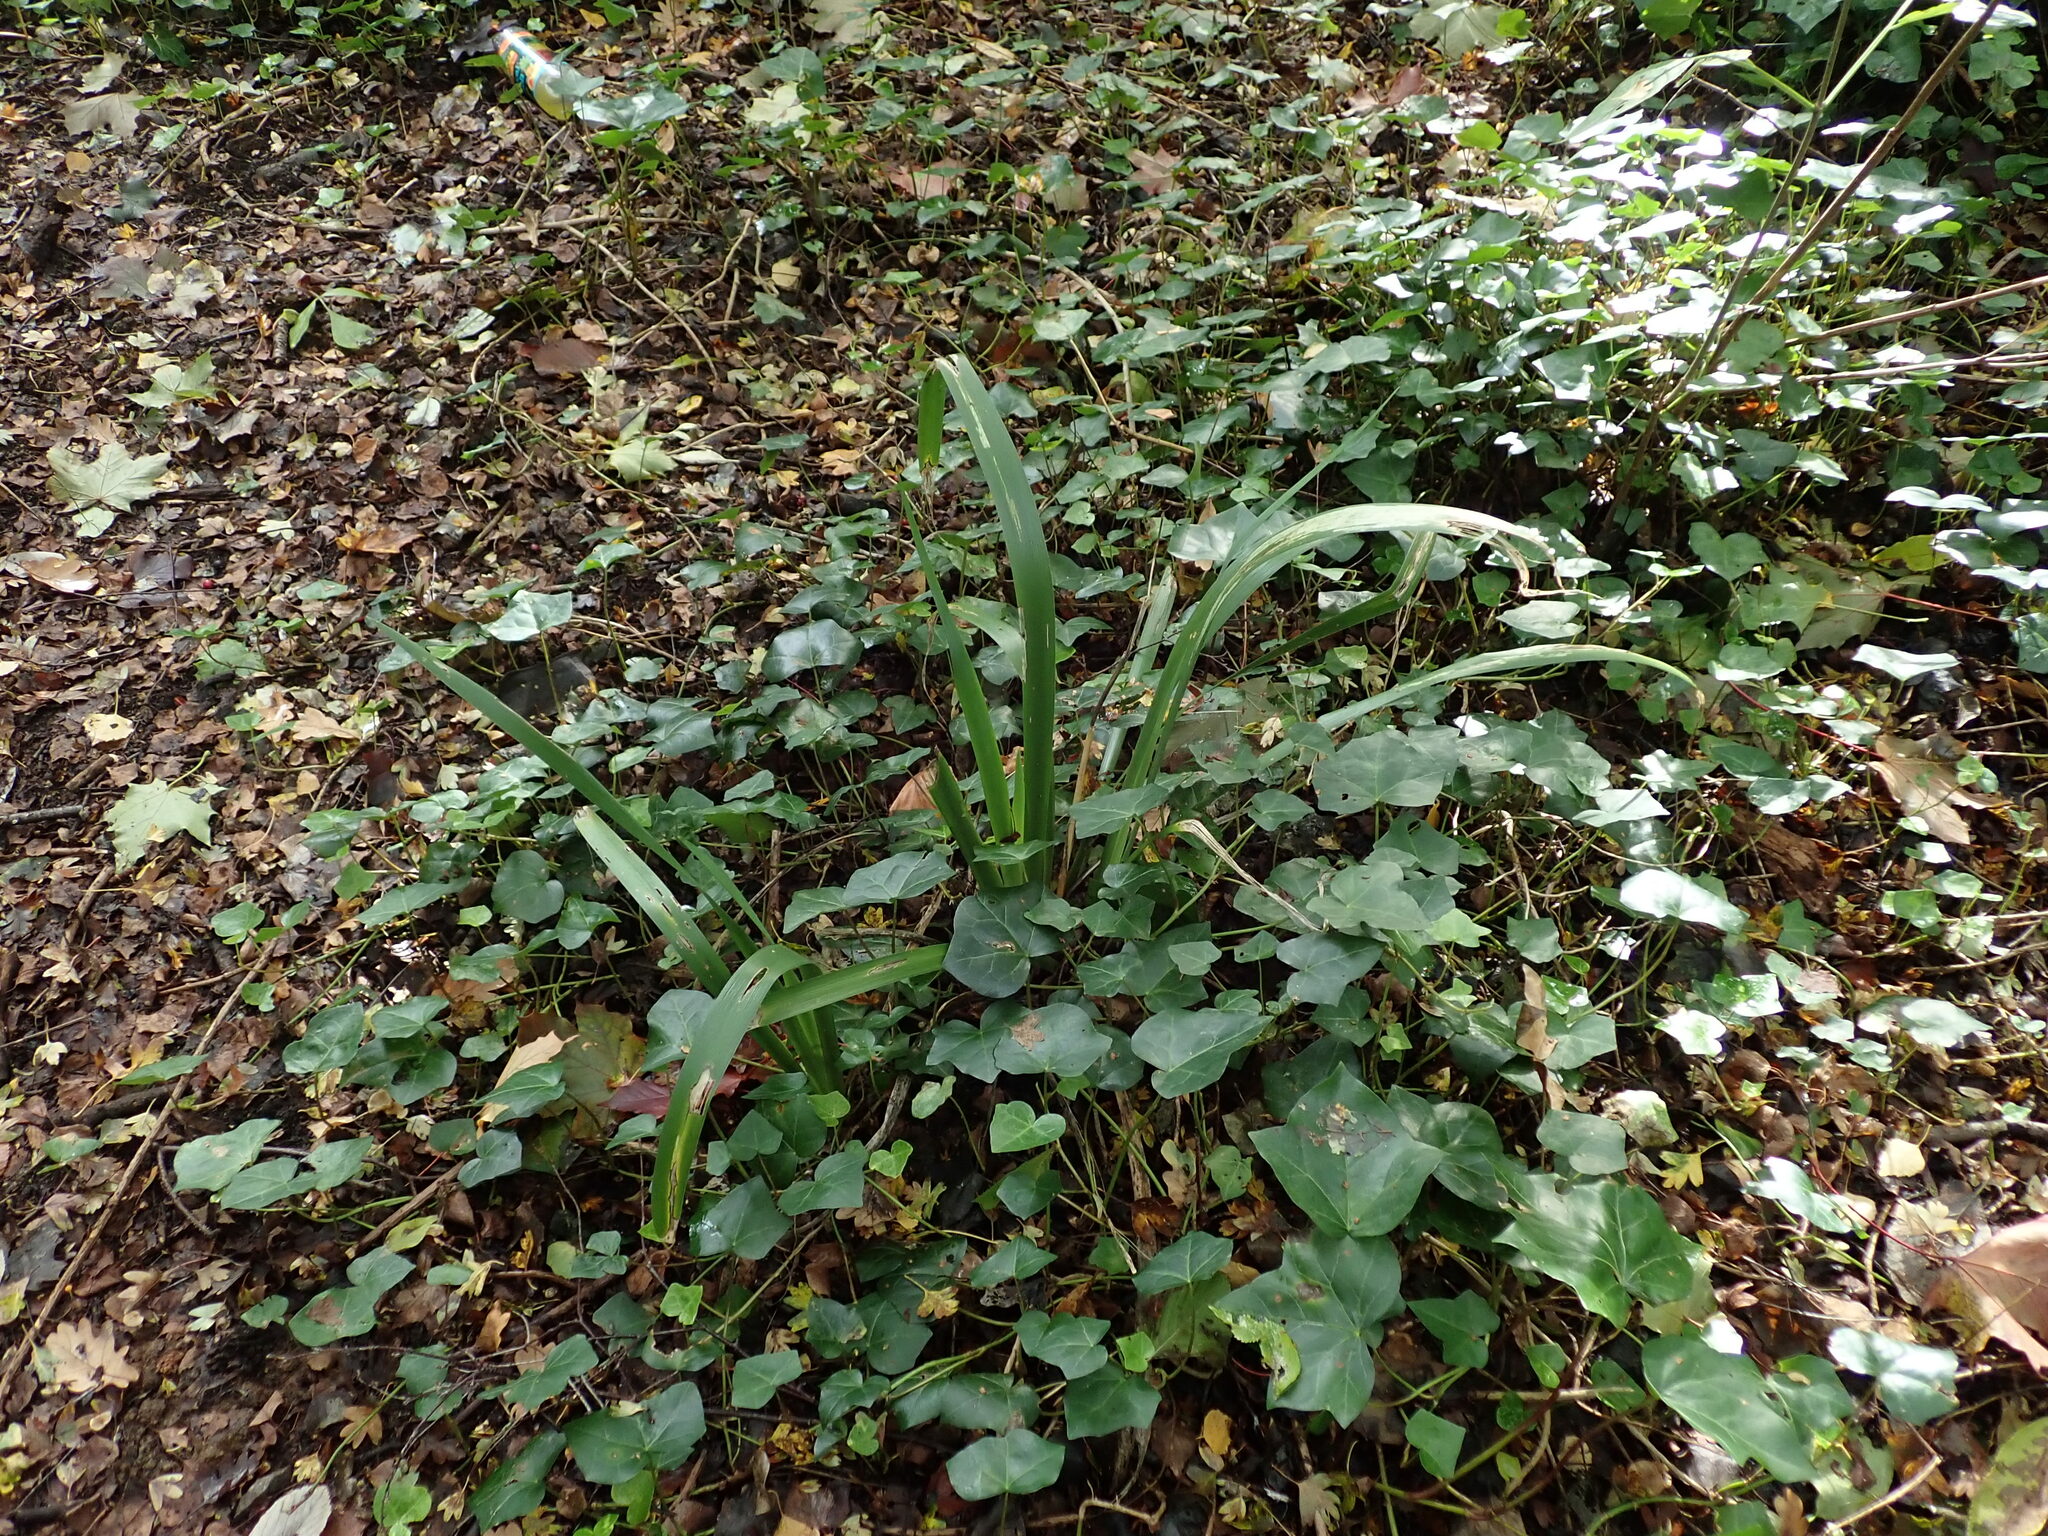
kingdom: Plantae
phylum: Tracheophyta
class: Liliopsida
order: Asparagales
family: Iridaceae
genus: Iris
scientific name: Iris foetidissima
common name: Stinking iris
